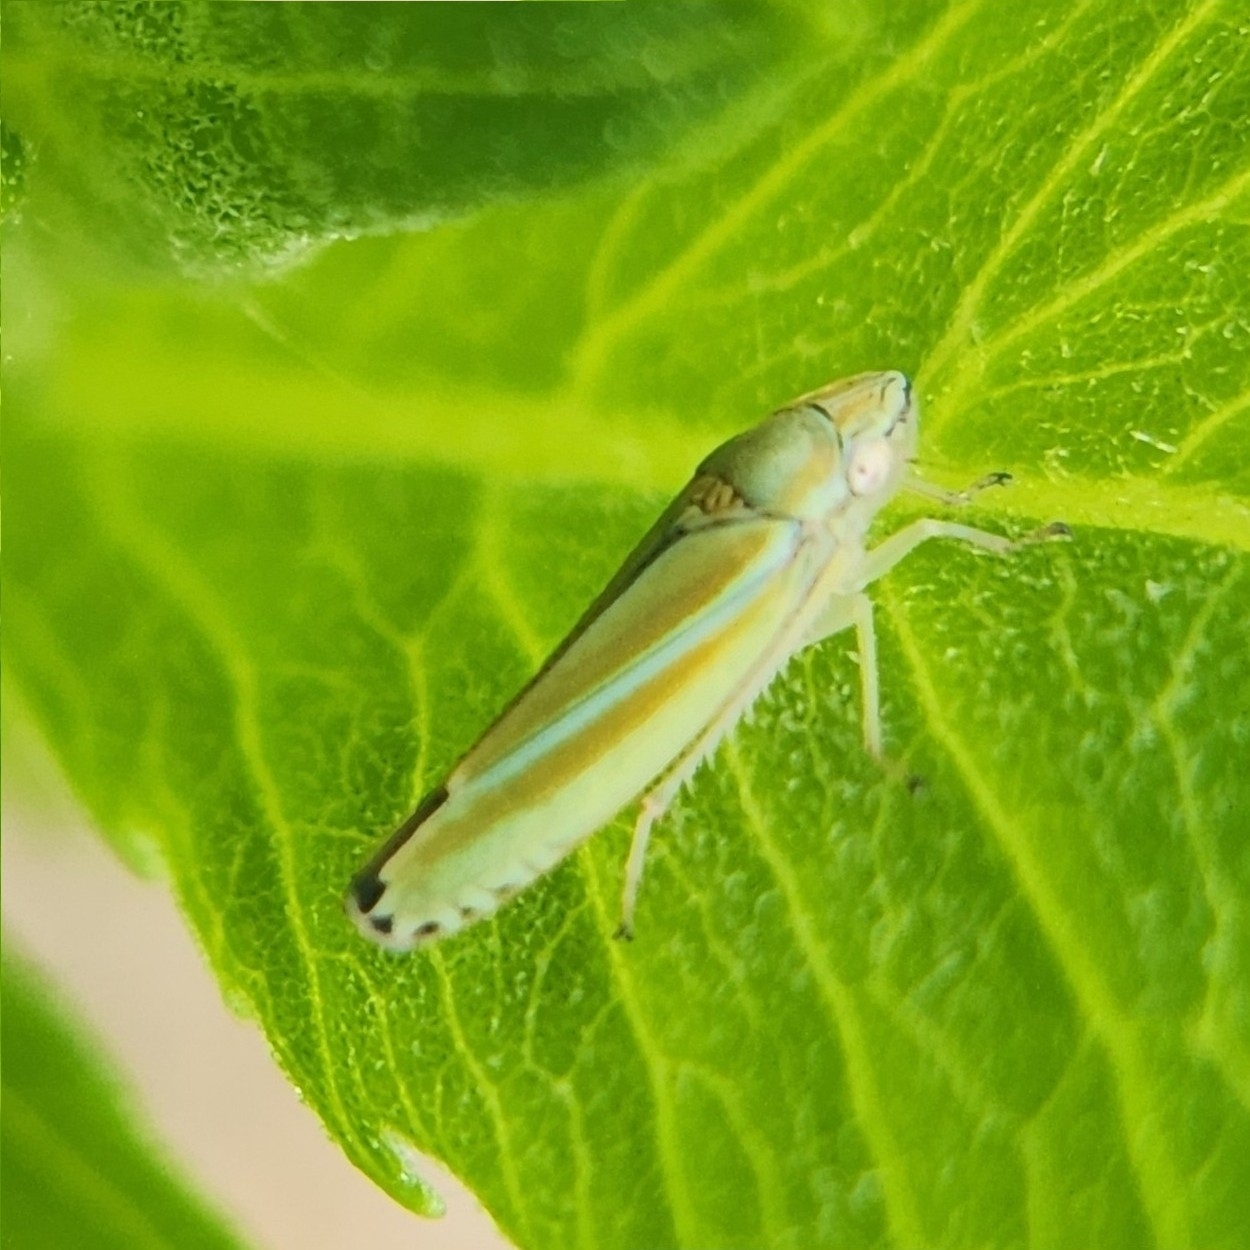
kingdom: Animalia
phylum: Arthropoda
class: Insecta
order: Hemiptera
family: Cicadellidae
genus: Graphocephala
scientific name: Graphocephala versuta
